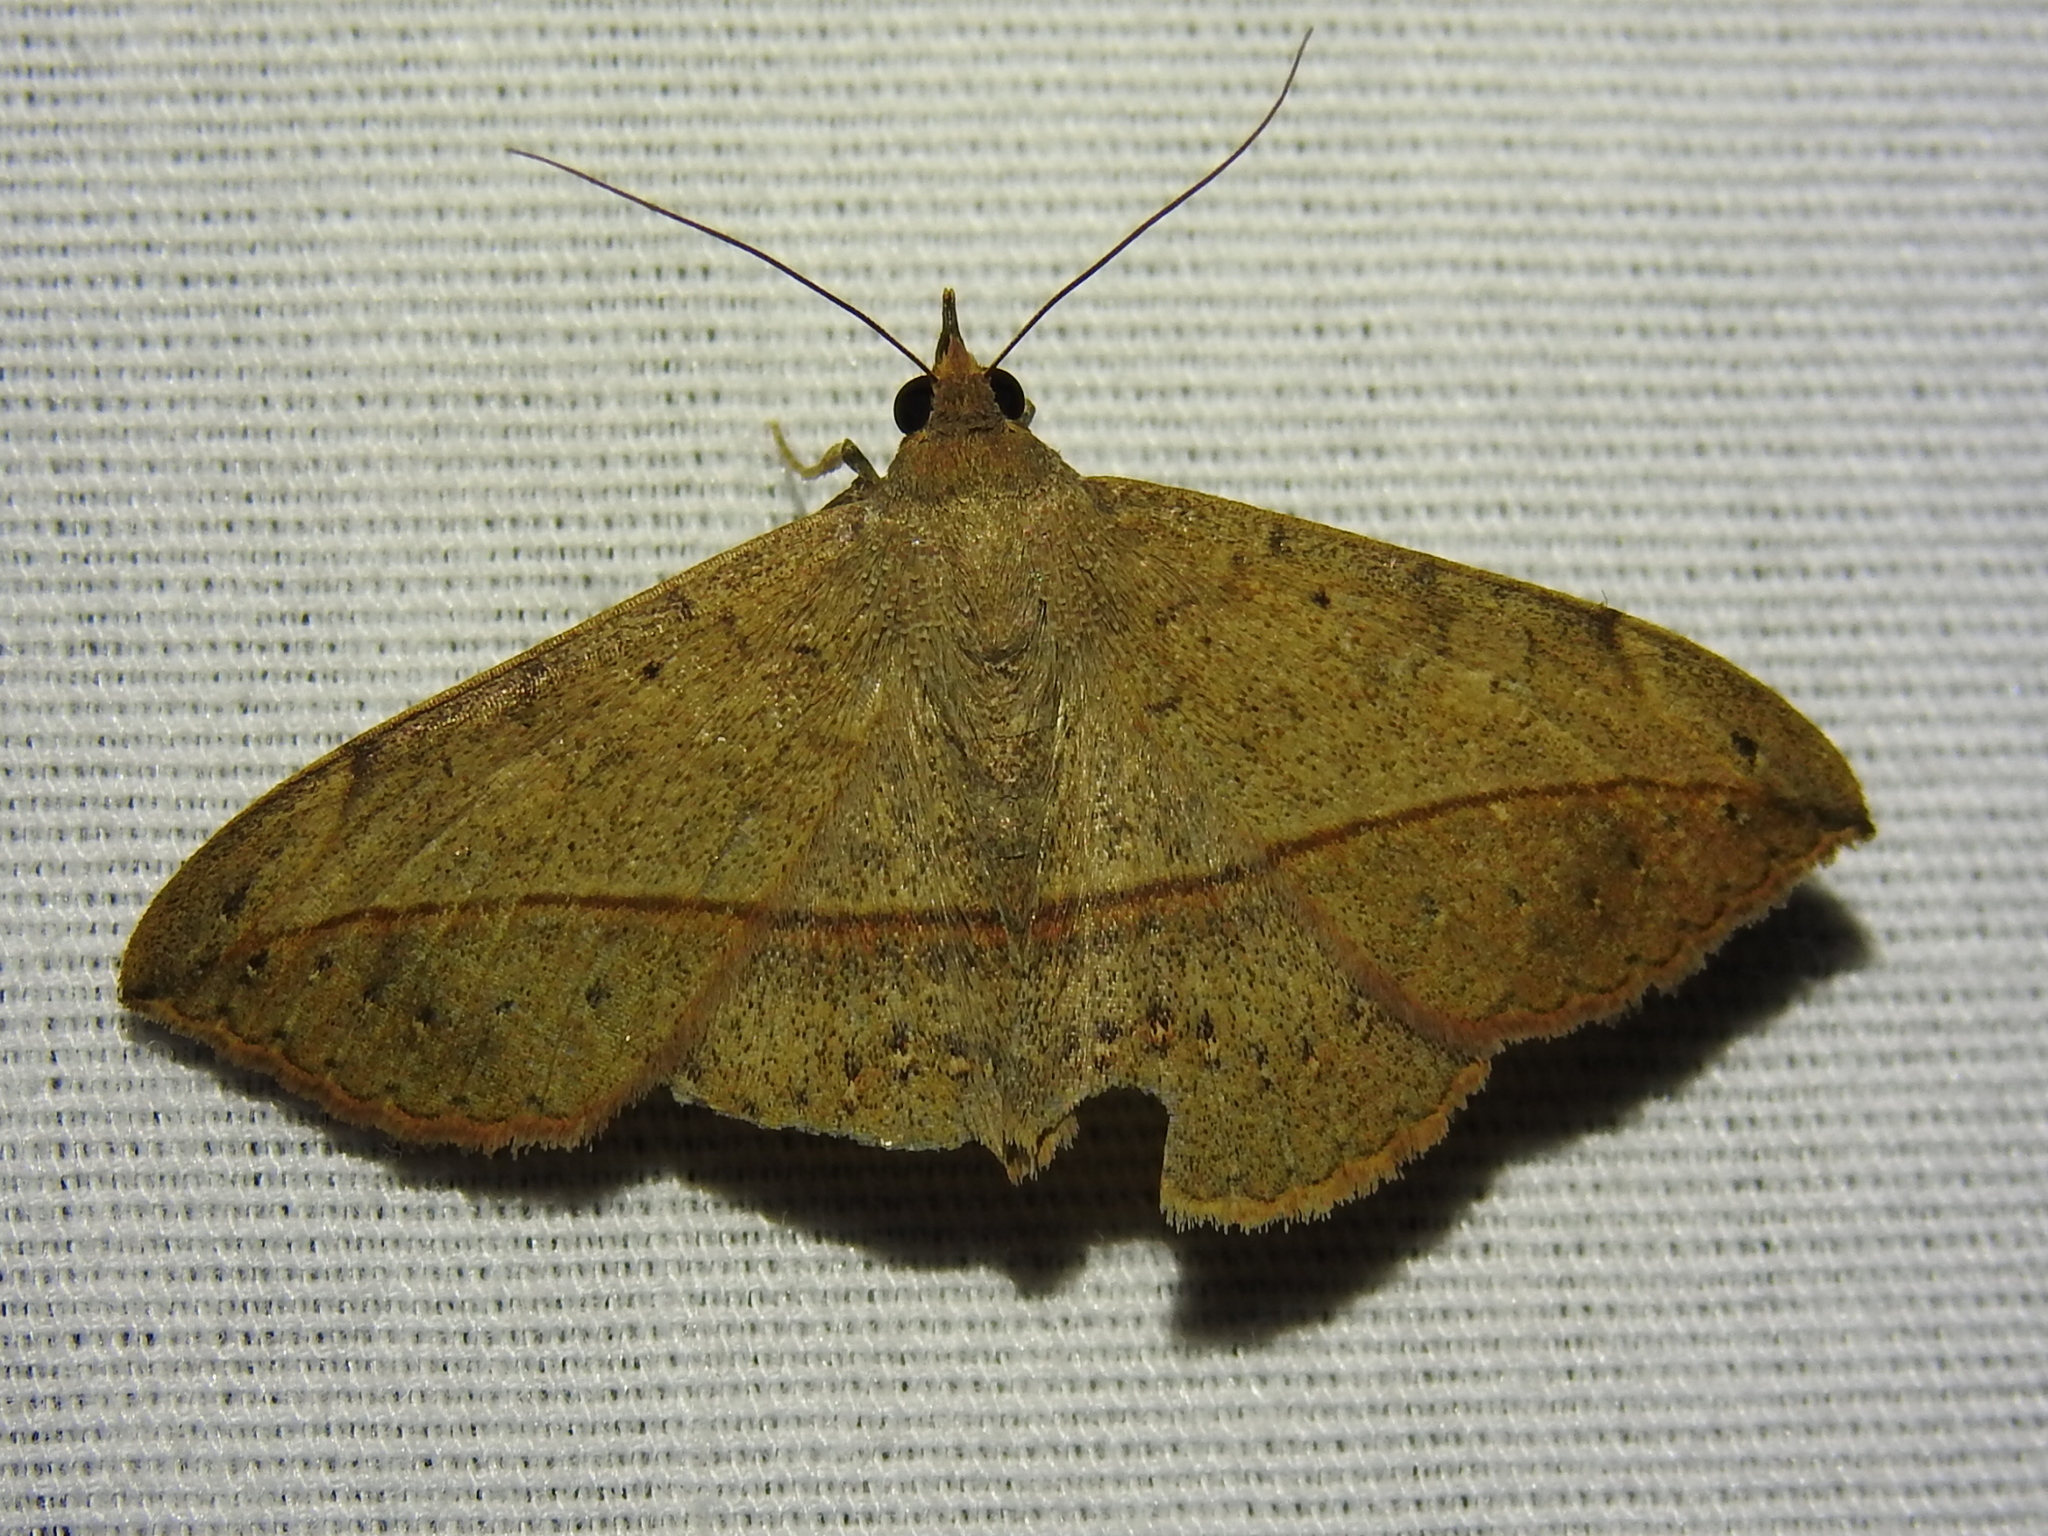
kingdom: Animalia
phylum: Arthropoda
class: Insecta
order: Lepidoptera
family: Erebidae
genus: Anticarsia
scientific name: Anticarsia gemmatalis
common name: Cutworm moth
